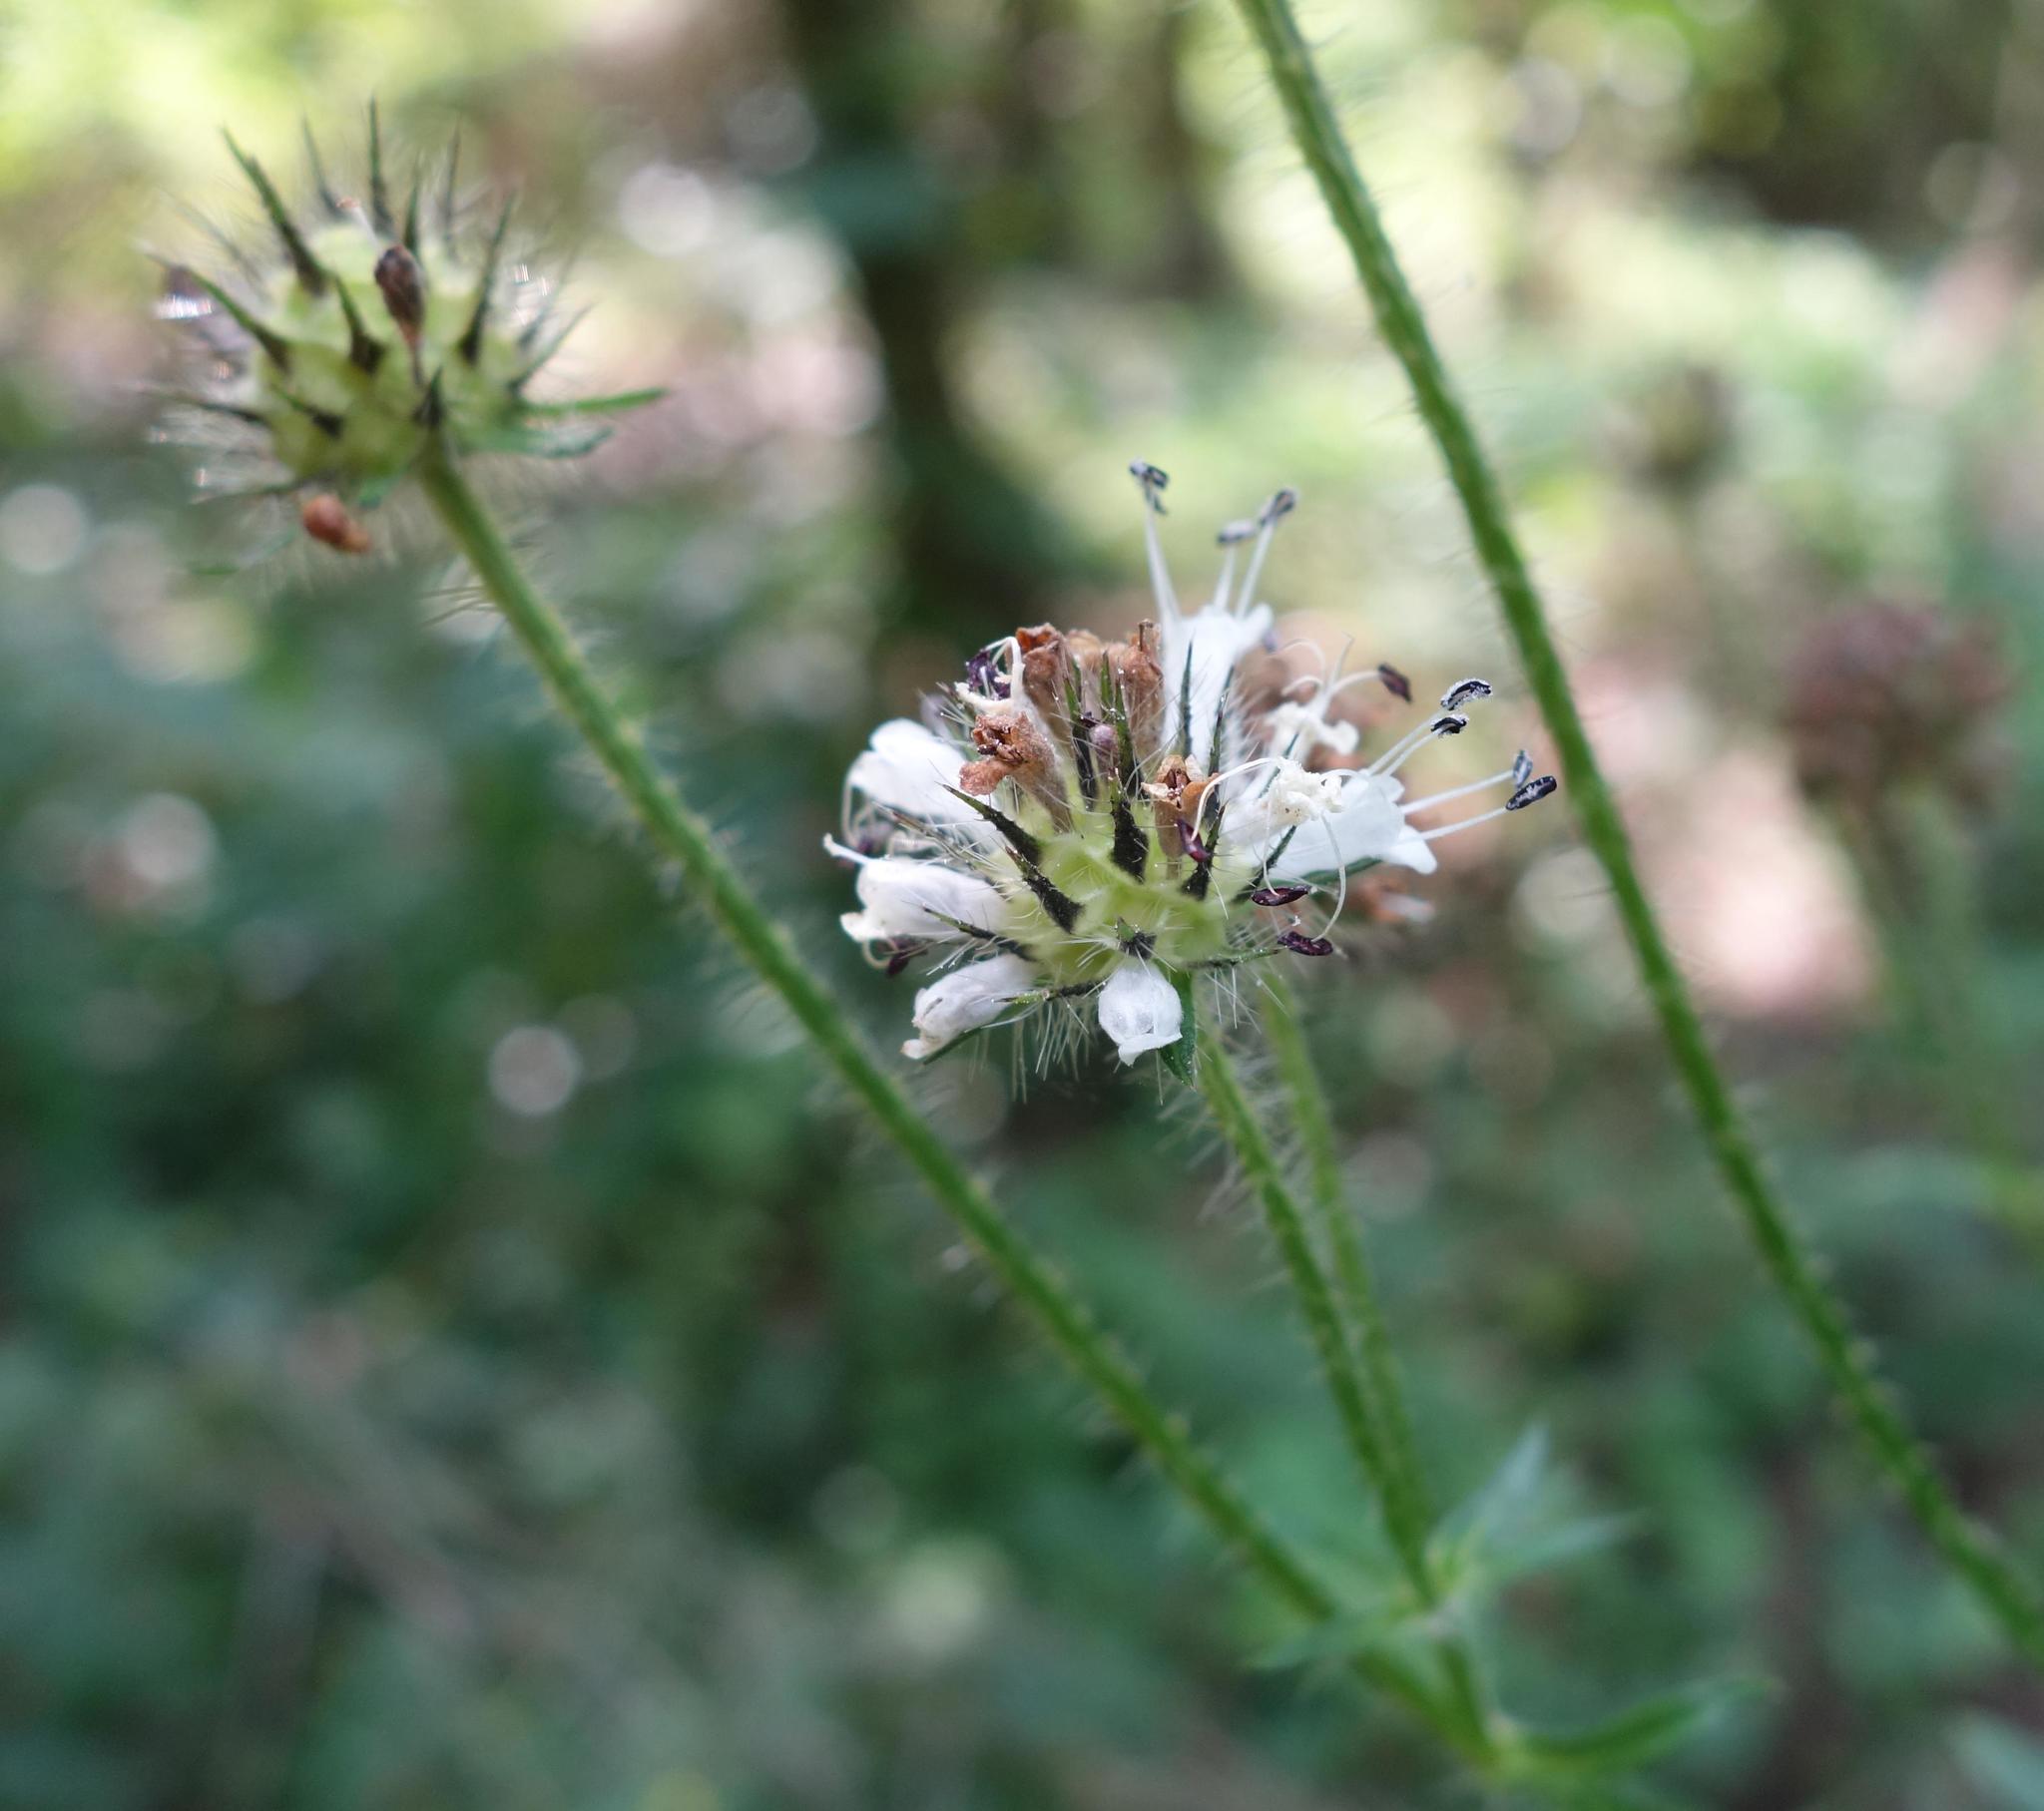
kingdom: Plantae
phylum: Tracheophyta
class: Magnoliopsida
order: Dipsacales
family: Caprifoliaceae
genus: Dipsacus
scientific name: Dipsacus pilosus
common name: Small teasel
